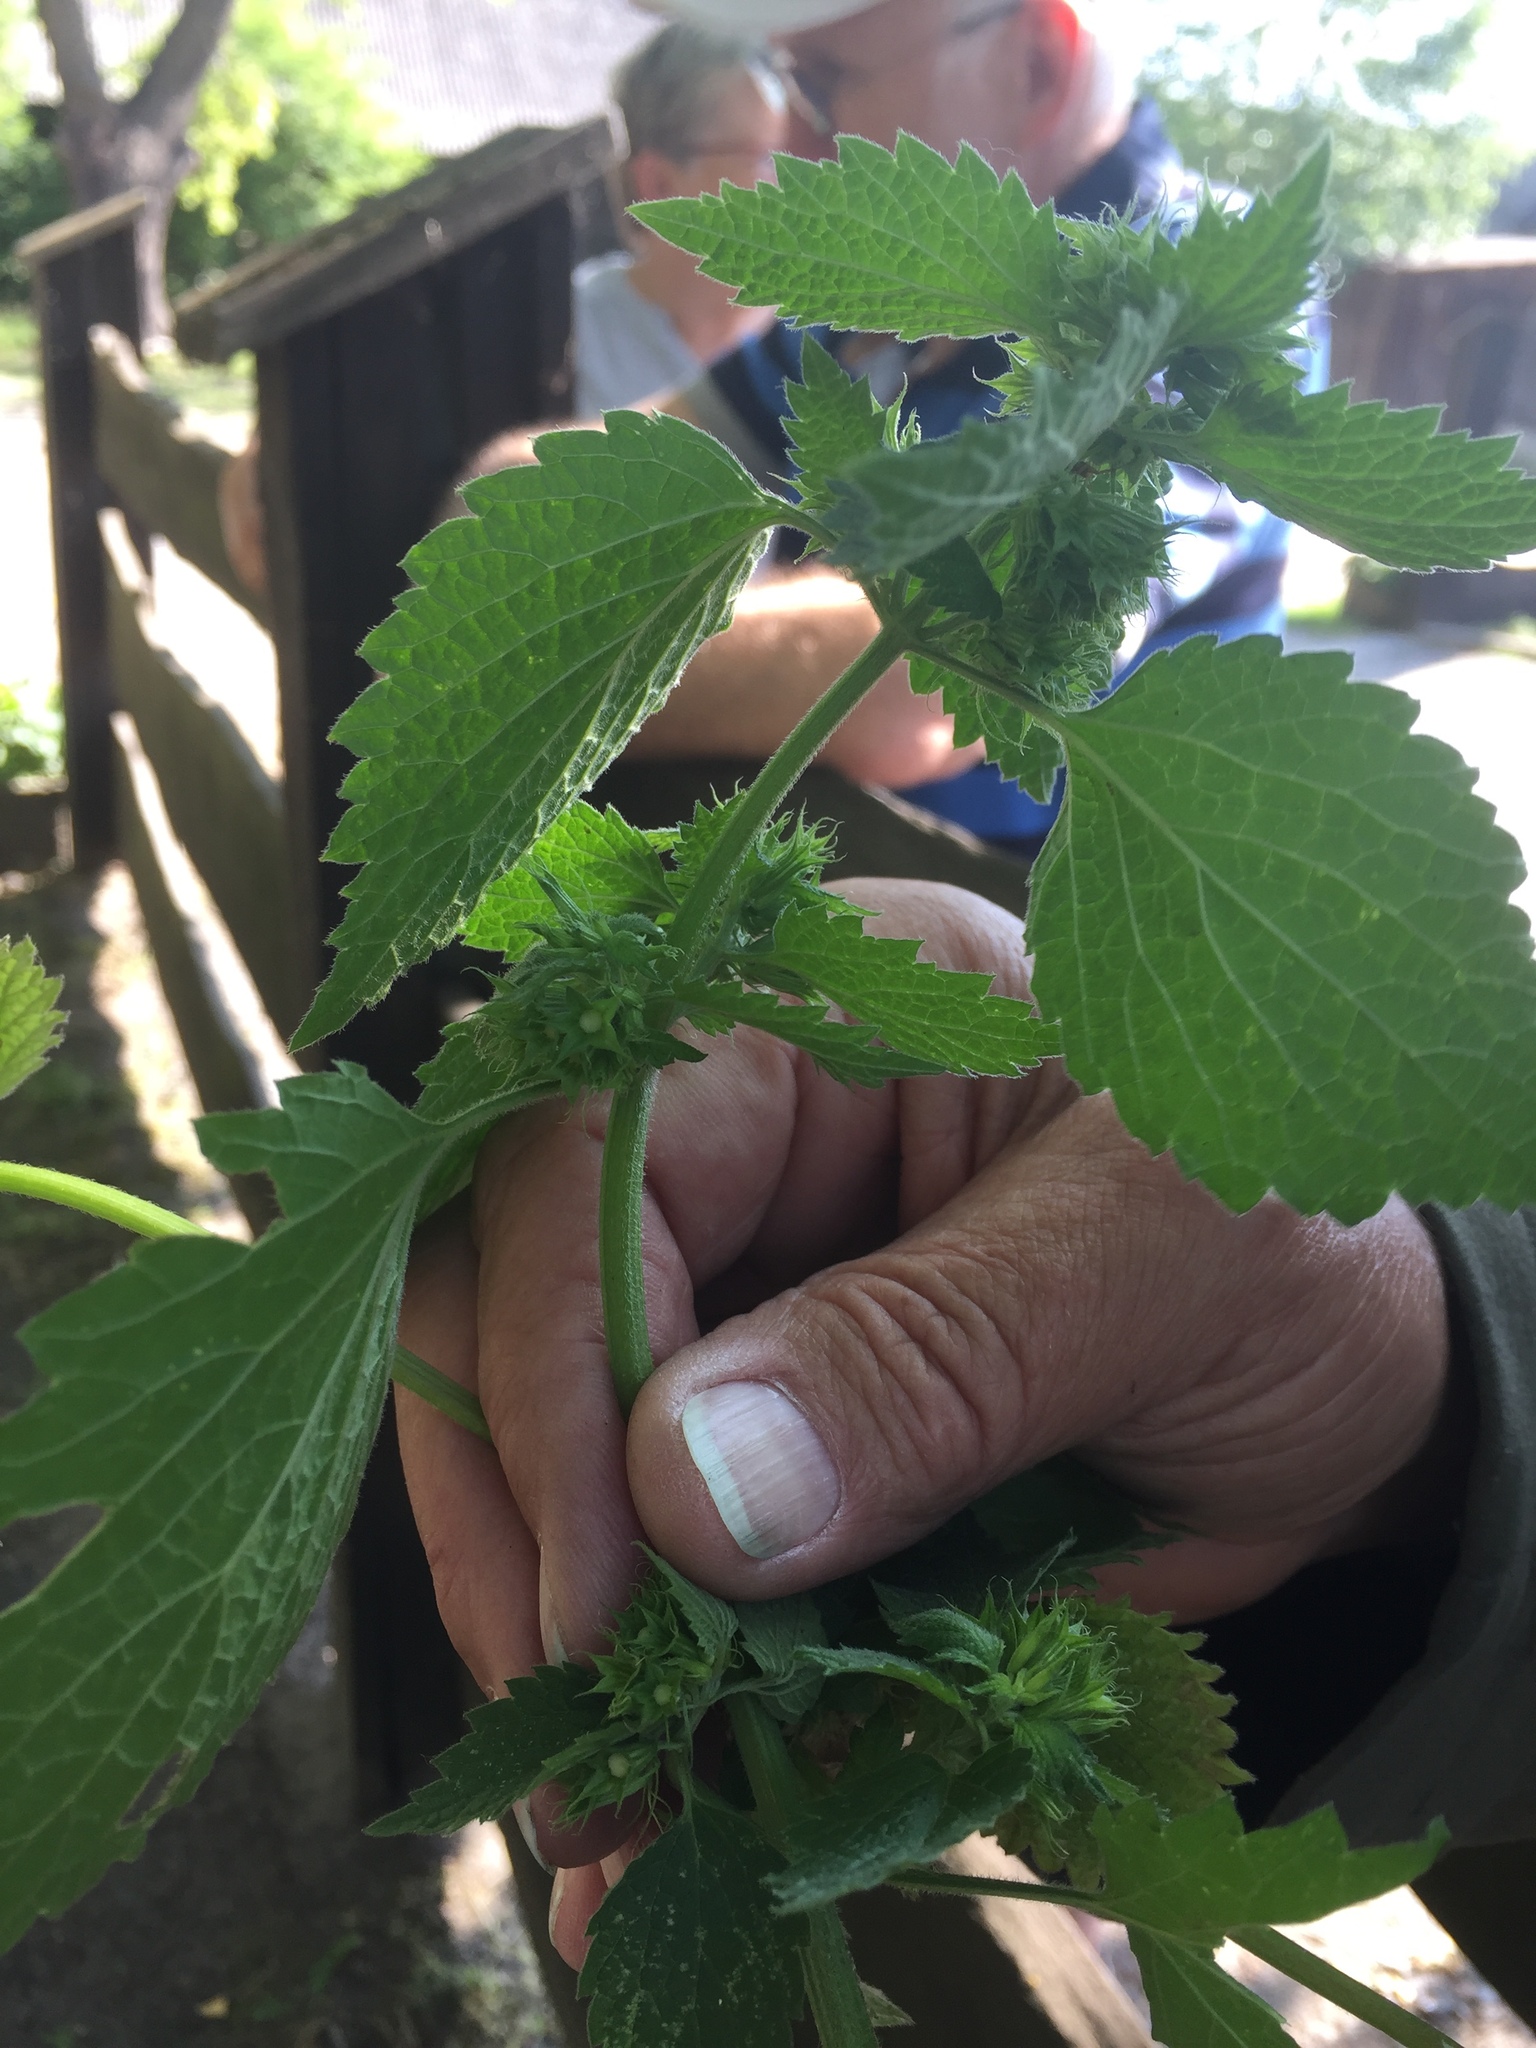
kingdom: Plantae
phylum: Tracheophyta
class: Magnoliopsida
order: Lamiales
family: Lamiaceae
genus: Ballota
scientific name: Ballota nigra
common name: Black horehound
